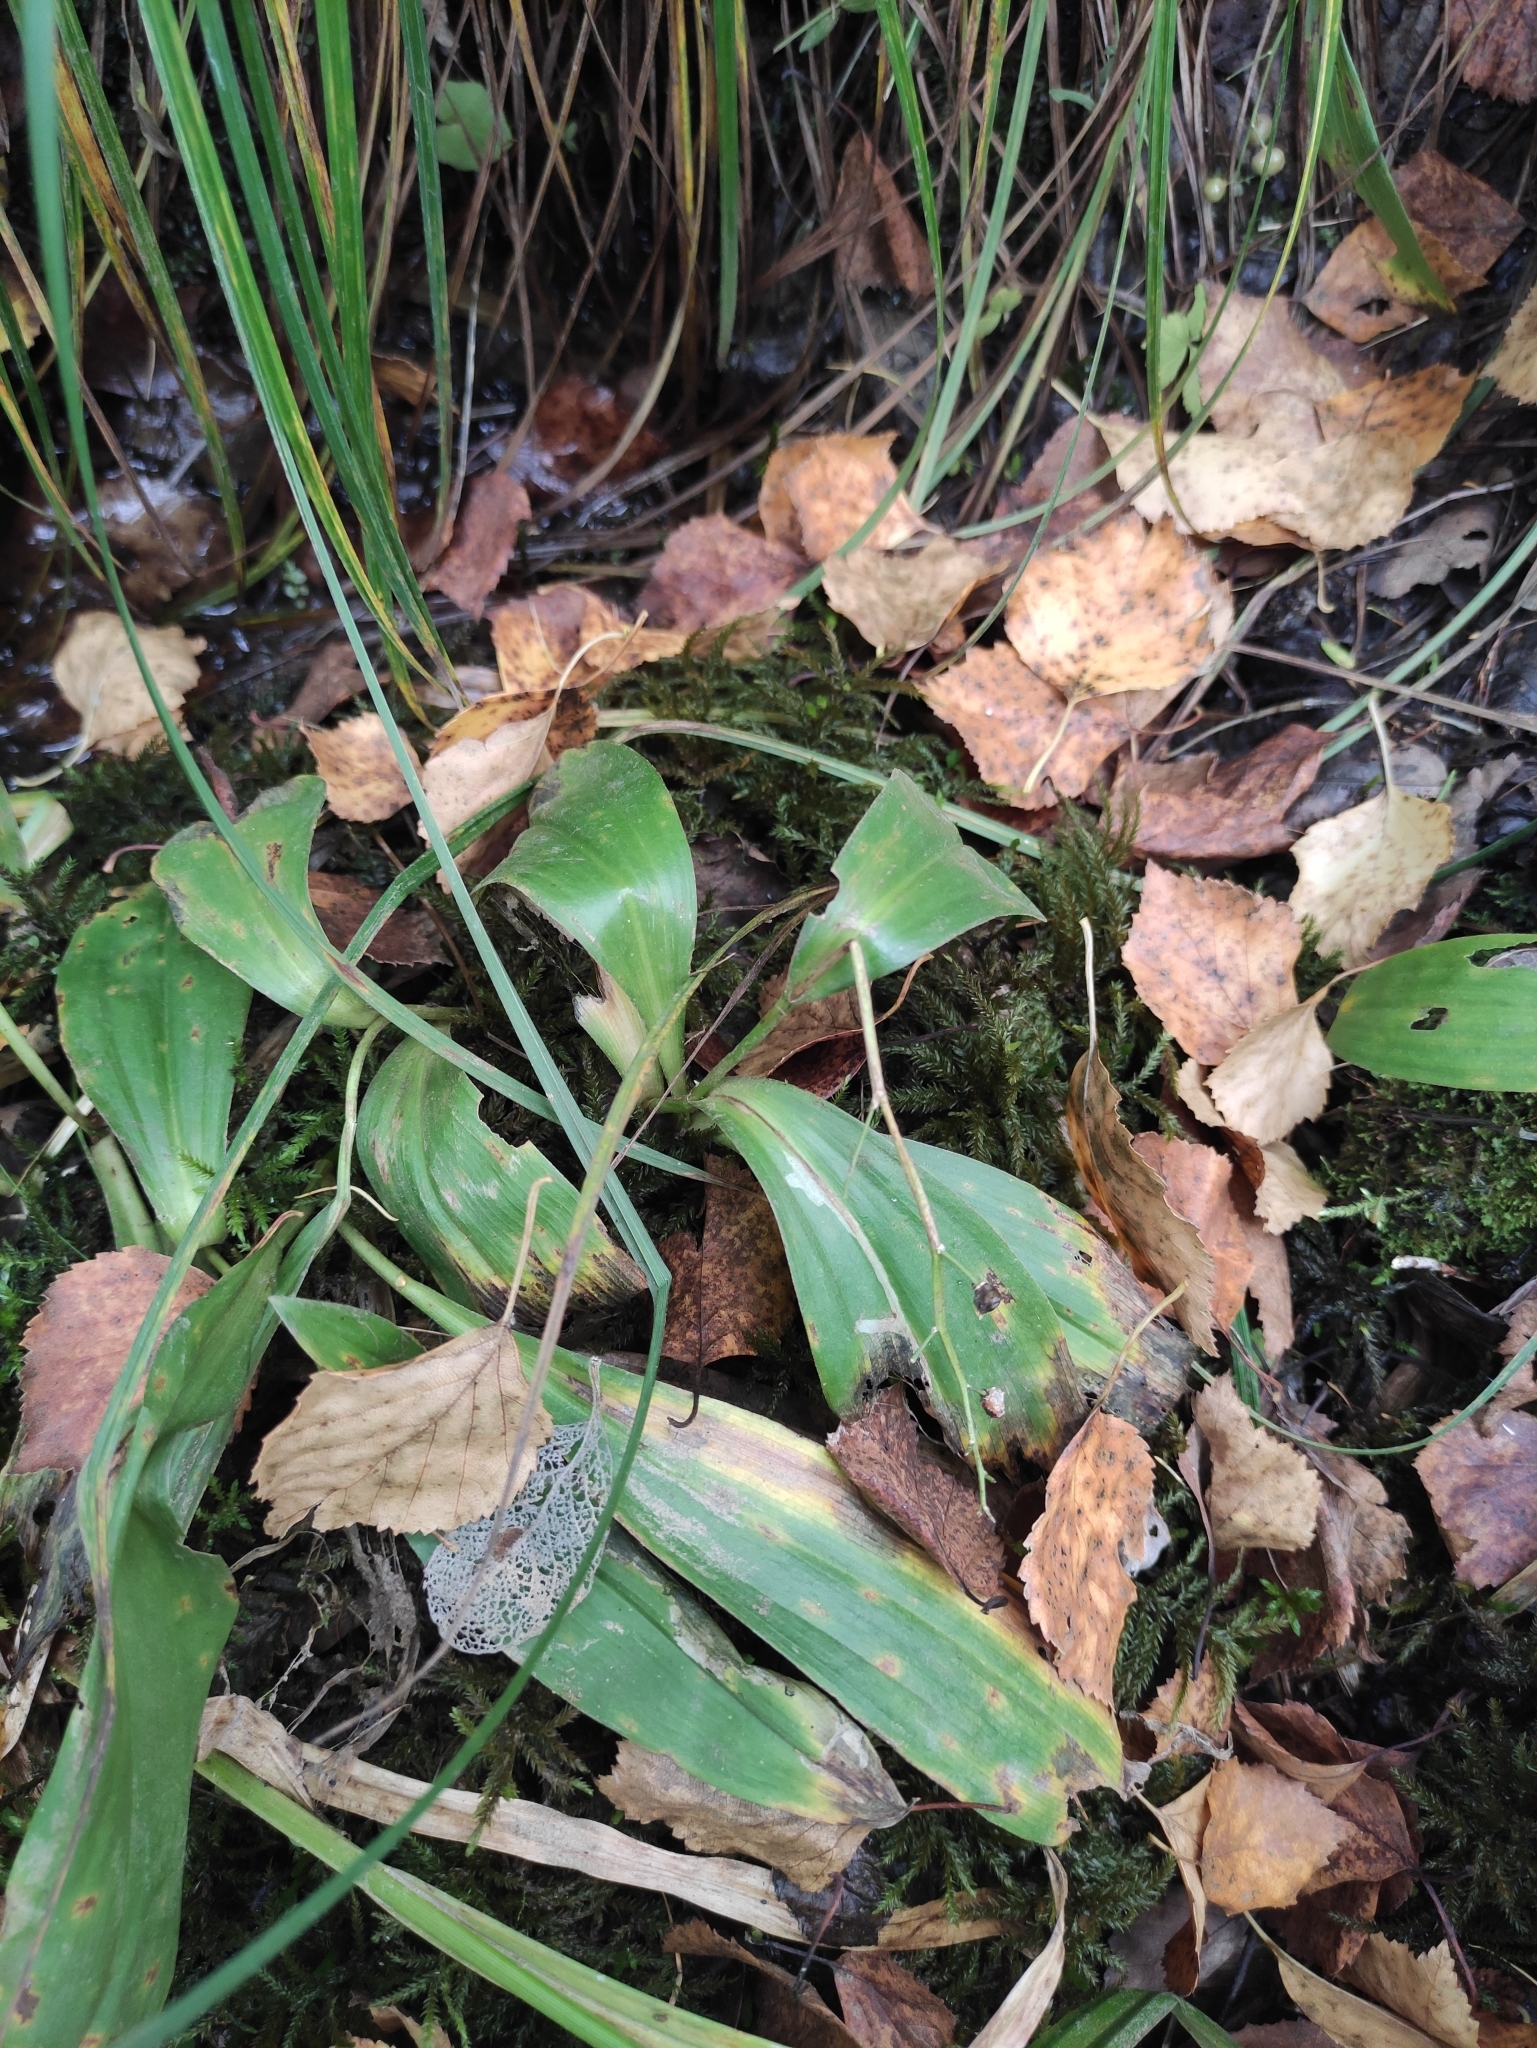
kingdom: Plantae
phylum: Tracheophyta
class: Liliopsida
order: Asparagales
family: Asparagaceae
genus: Maianthemum
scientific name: Maianthemum trifolium
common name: Swamp false solomon's seal
